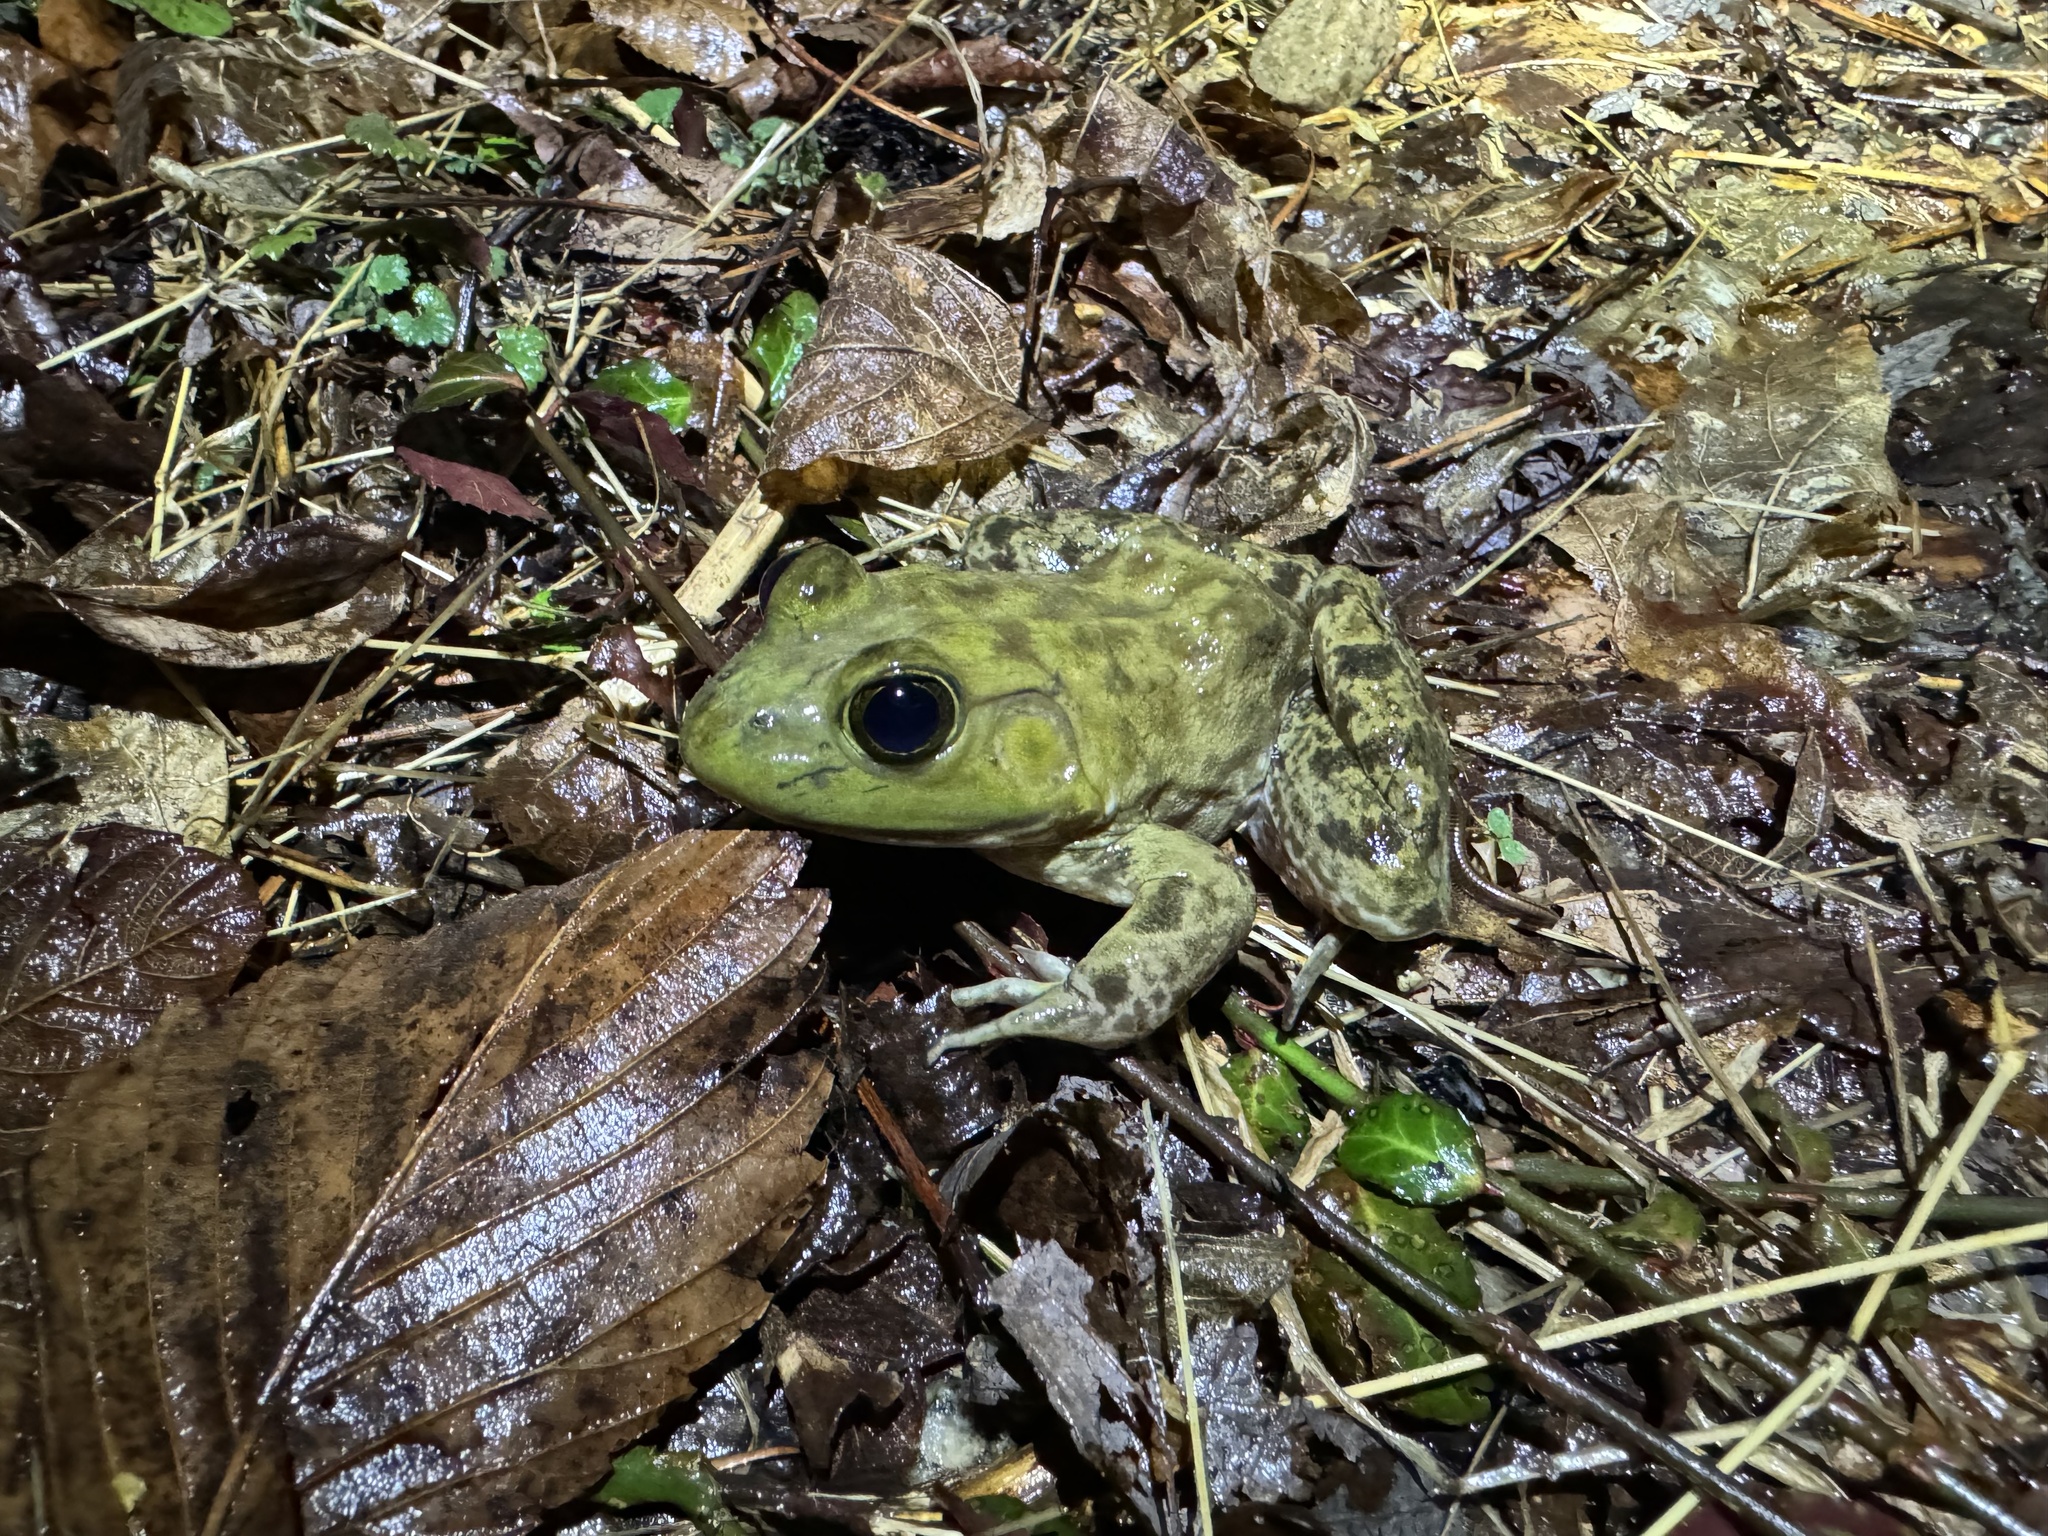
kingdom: Animalia
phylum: Chordata
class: Amphibia
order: Anura
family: Ranidae
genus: Lithobates
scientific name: Lithobates catesbeianus
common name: American bullfrog
